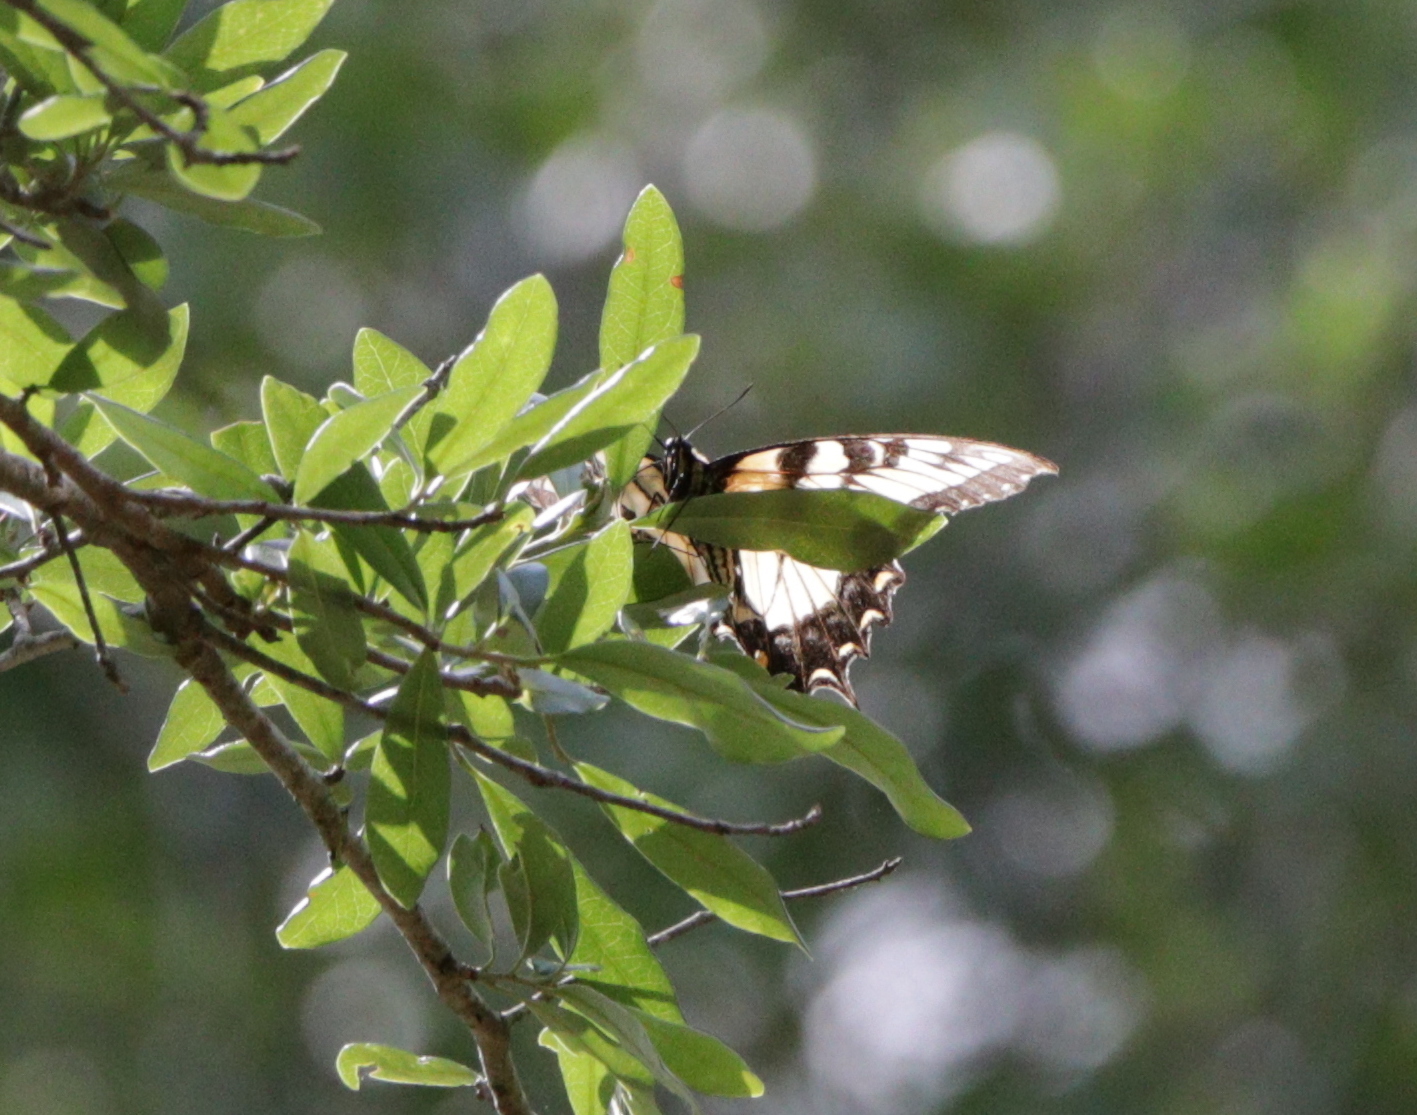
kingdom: Animalia
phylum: Arthropoda
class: Insecta
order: Lepidoptera
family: Papilionidae
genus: Papilio
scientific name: Papilio glaucus
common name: Tiger swallowtail
